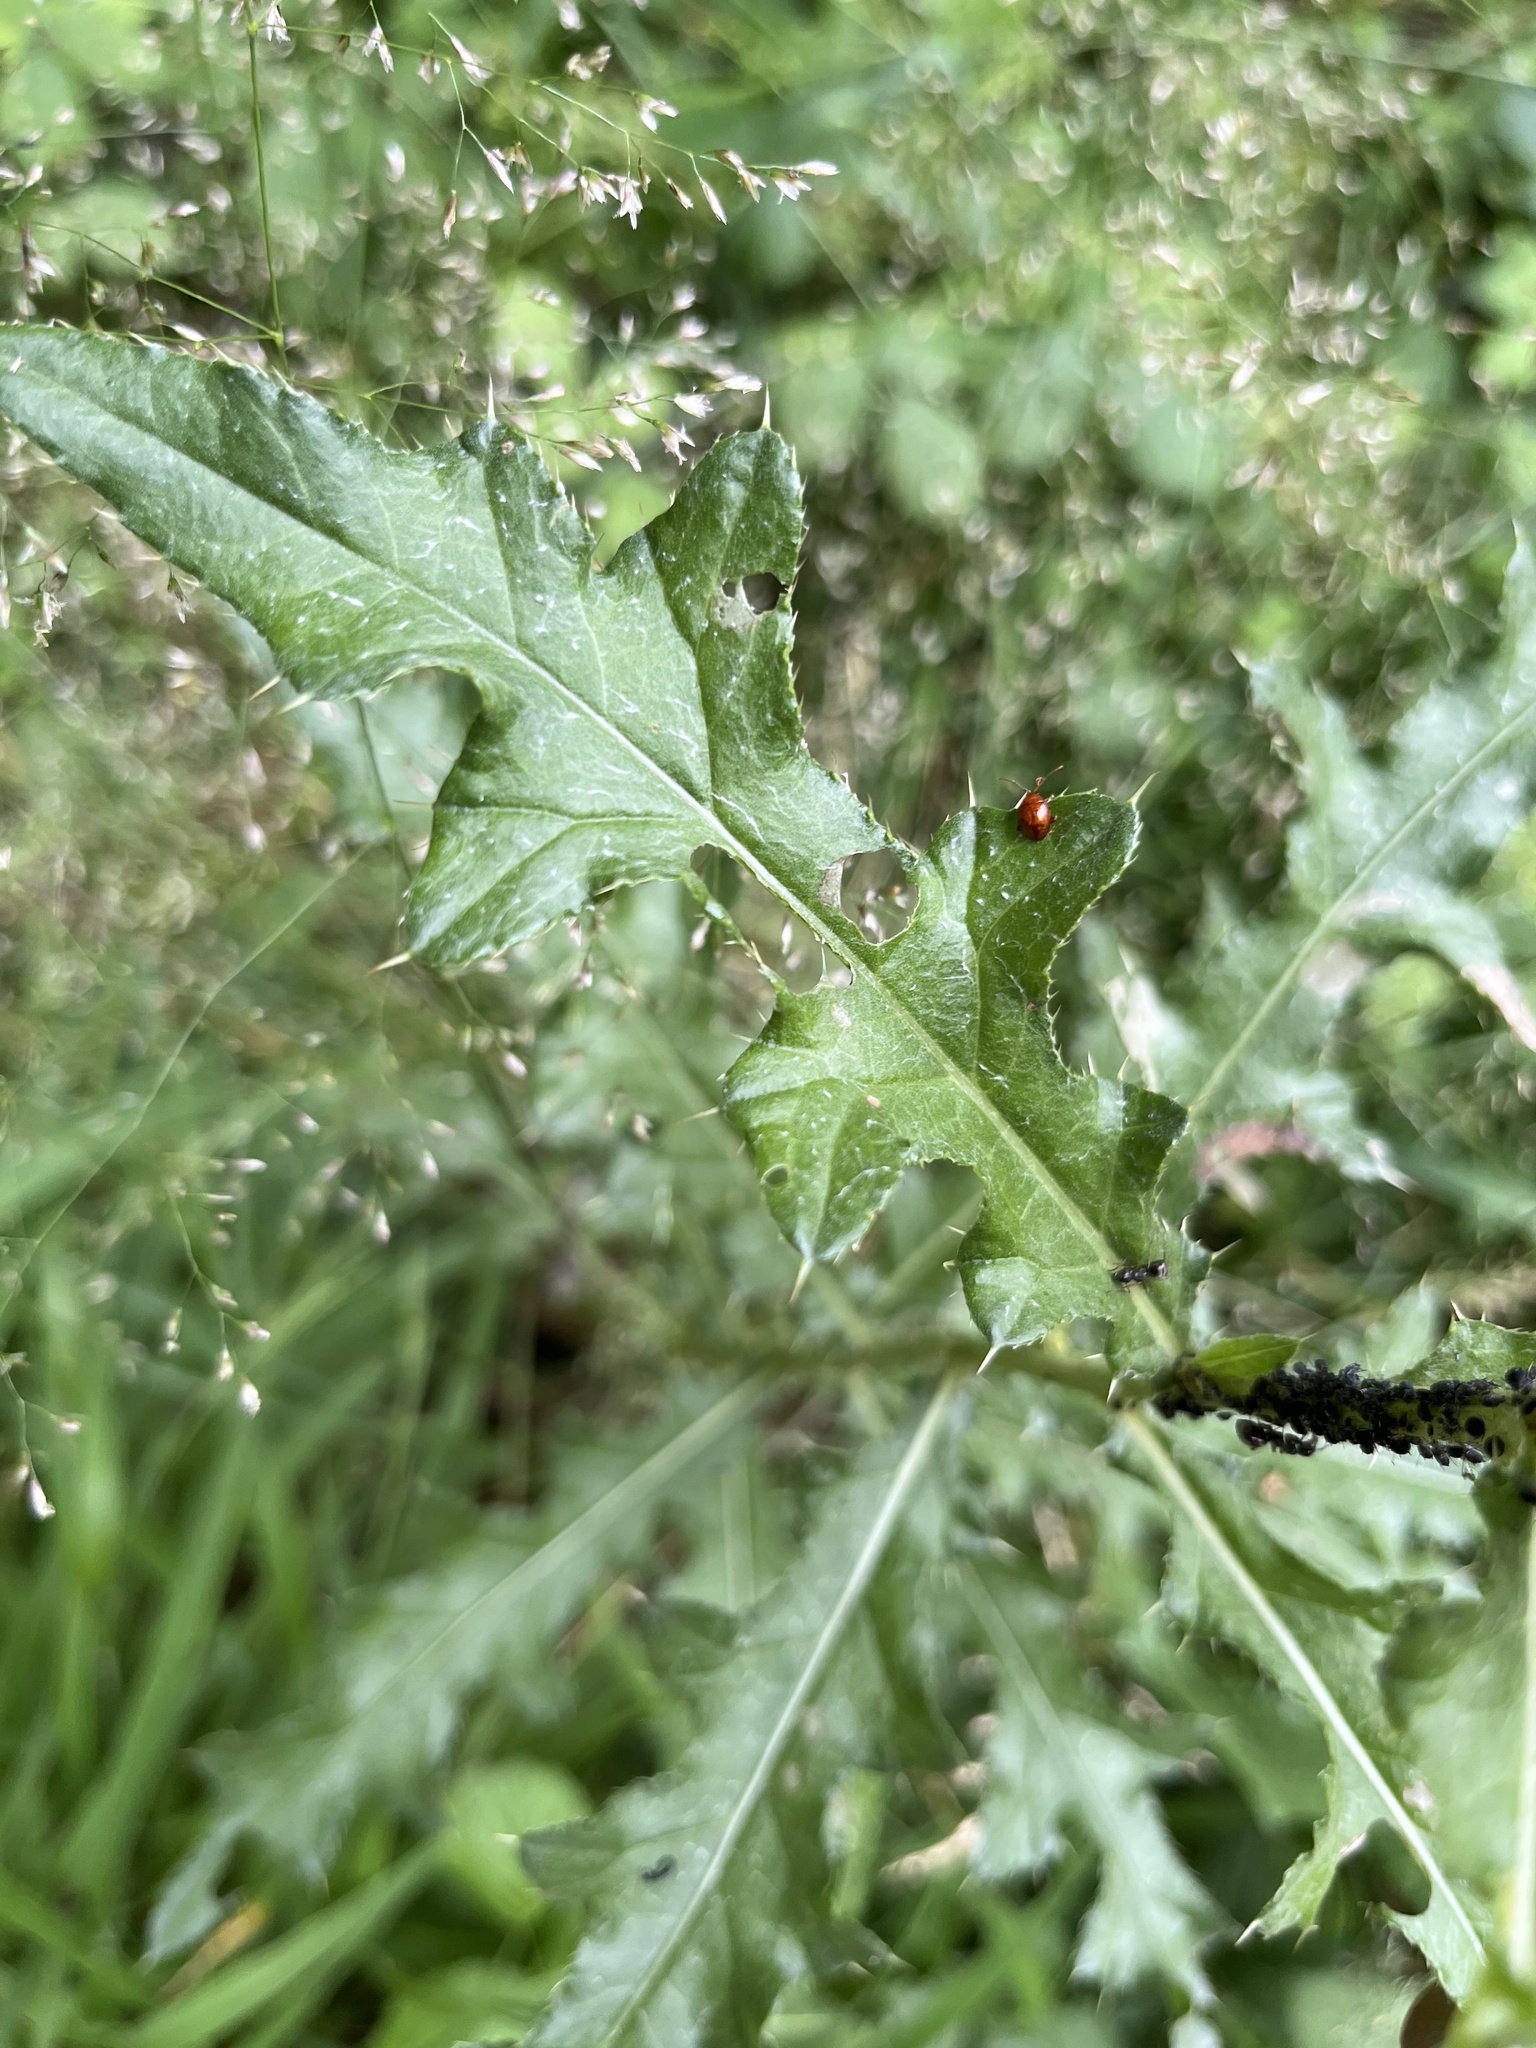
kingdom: Animalia
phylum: Arthropoda
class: Insecta
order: Coleoptera
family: Chrysomelidae
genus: Pistosia
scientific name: Pistosia testacea
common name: Leaf beetle
